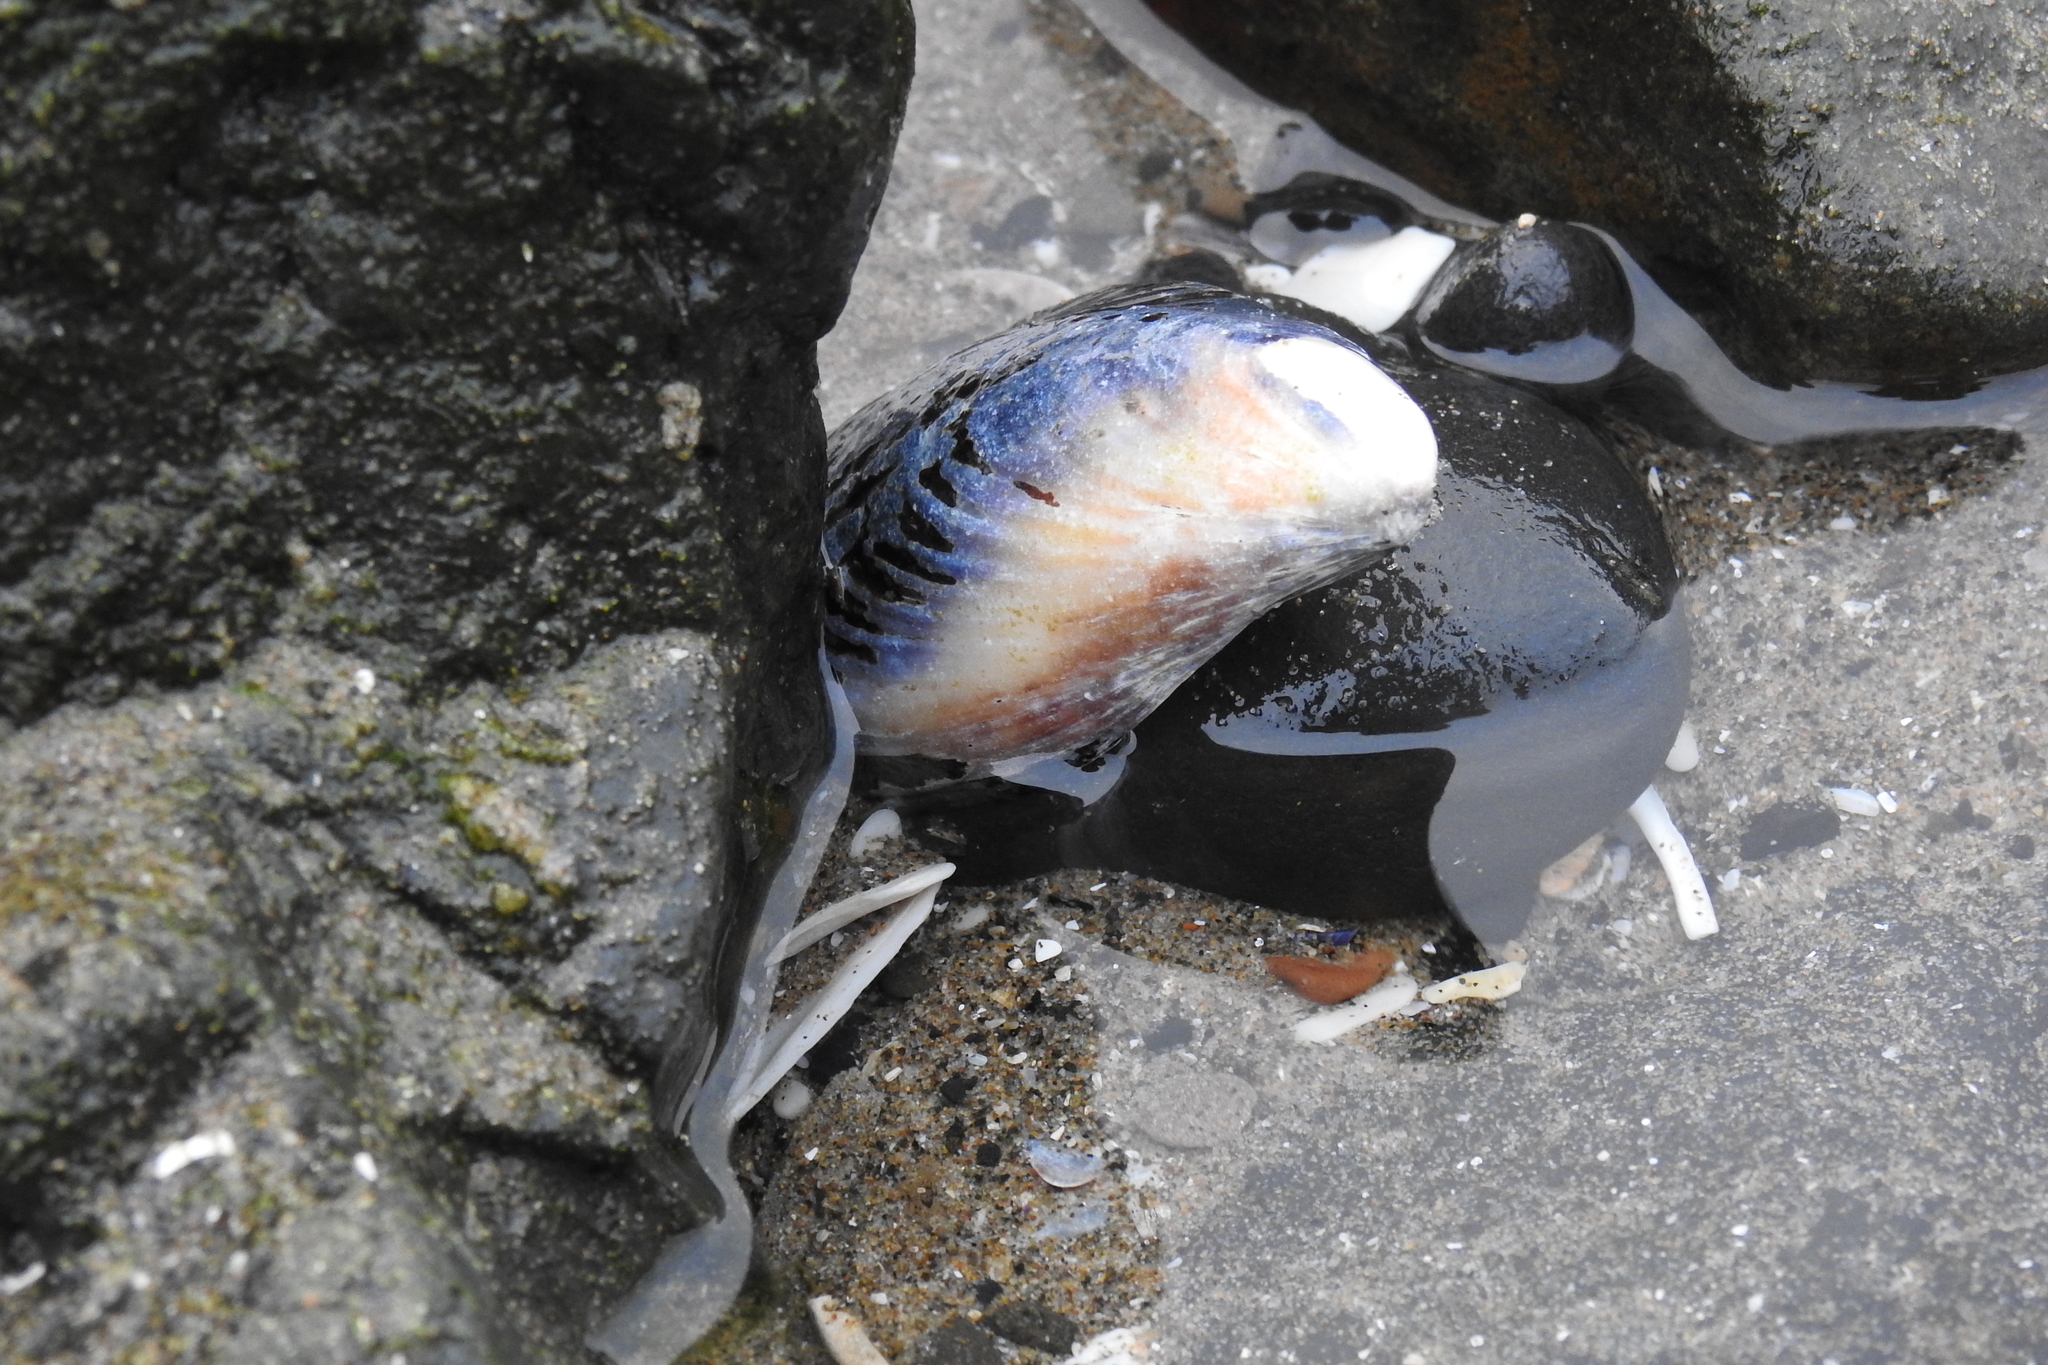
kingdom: Animalia
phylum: Mollusca
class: Bivalvia
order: Mytilida
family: Mytilidae
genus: Mytilus
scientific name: Mytilus californianus
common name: California mussel
